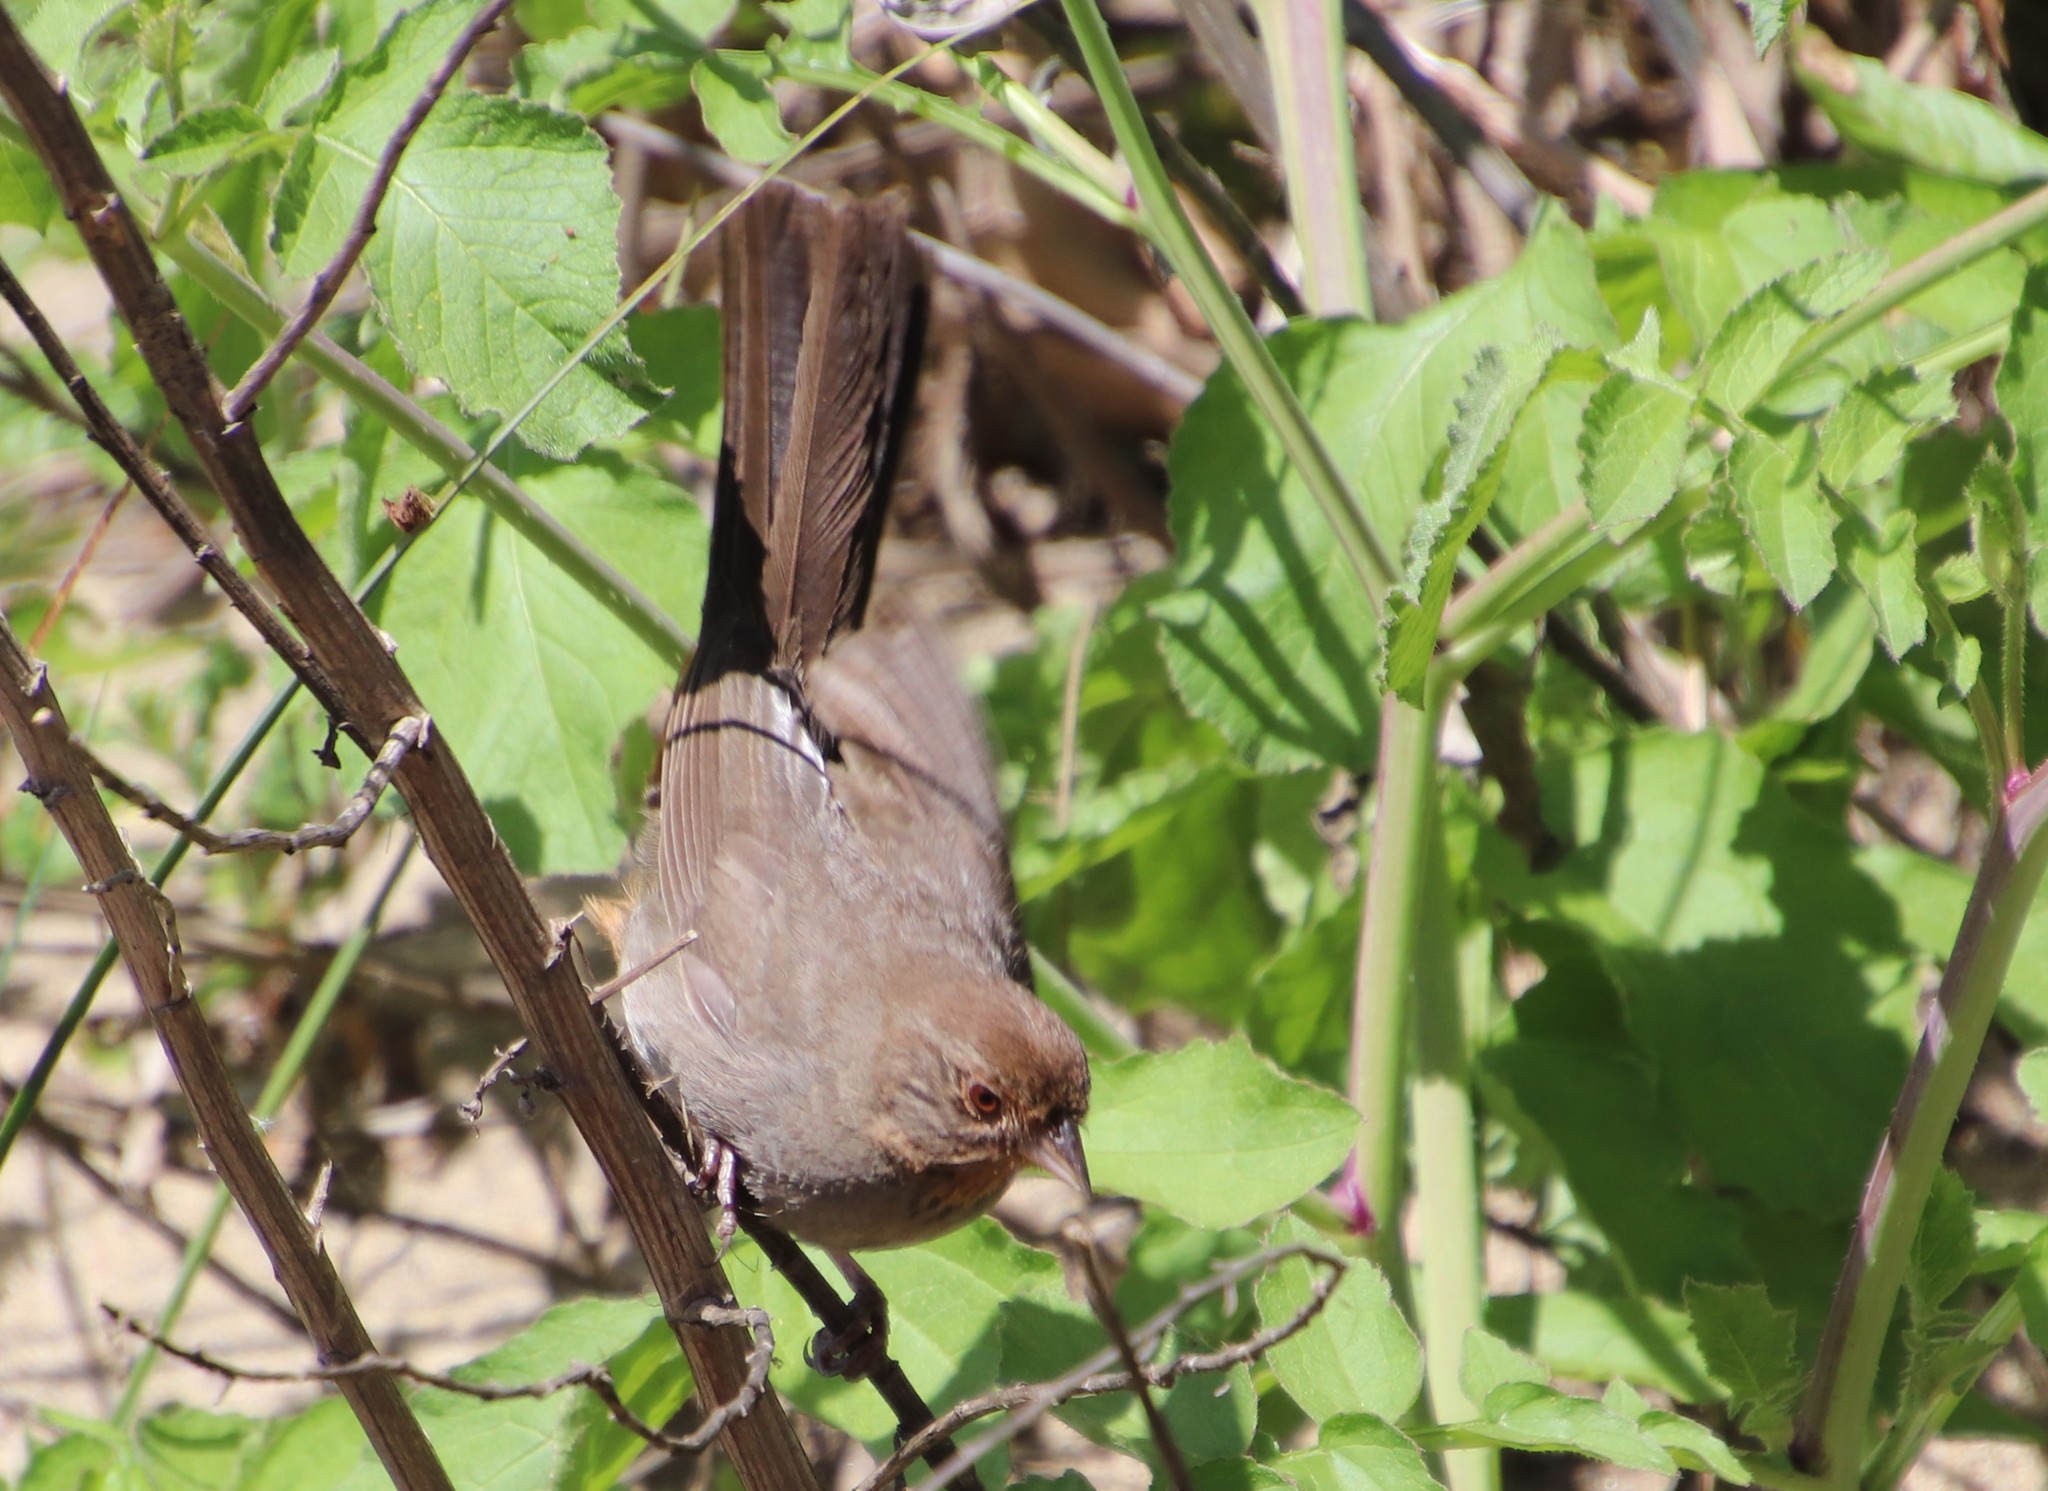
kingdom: Animalia
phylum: Chordata
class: Aves
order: Passeriformes
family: Passerellidae
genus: Melozone
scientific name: Melozone crissalis
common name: California towhee
